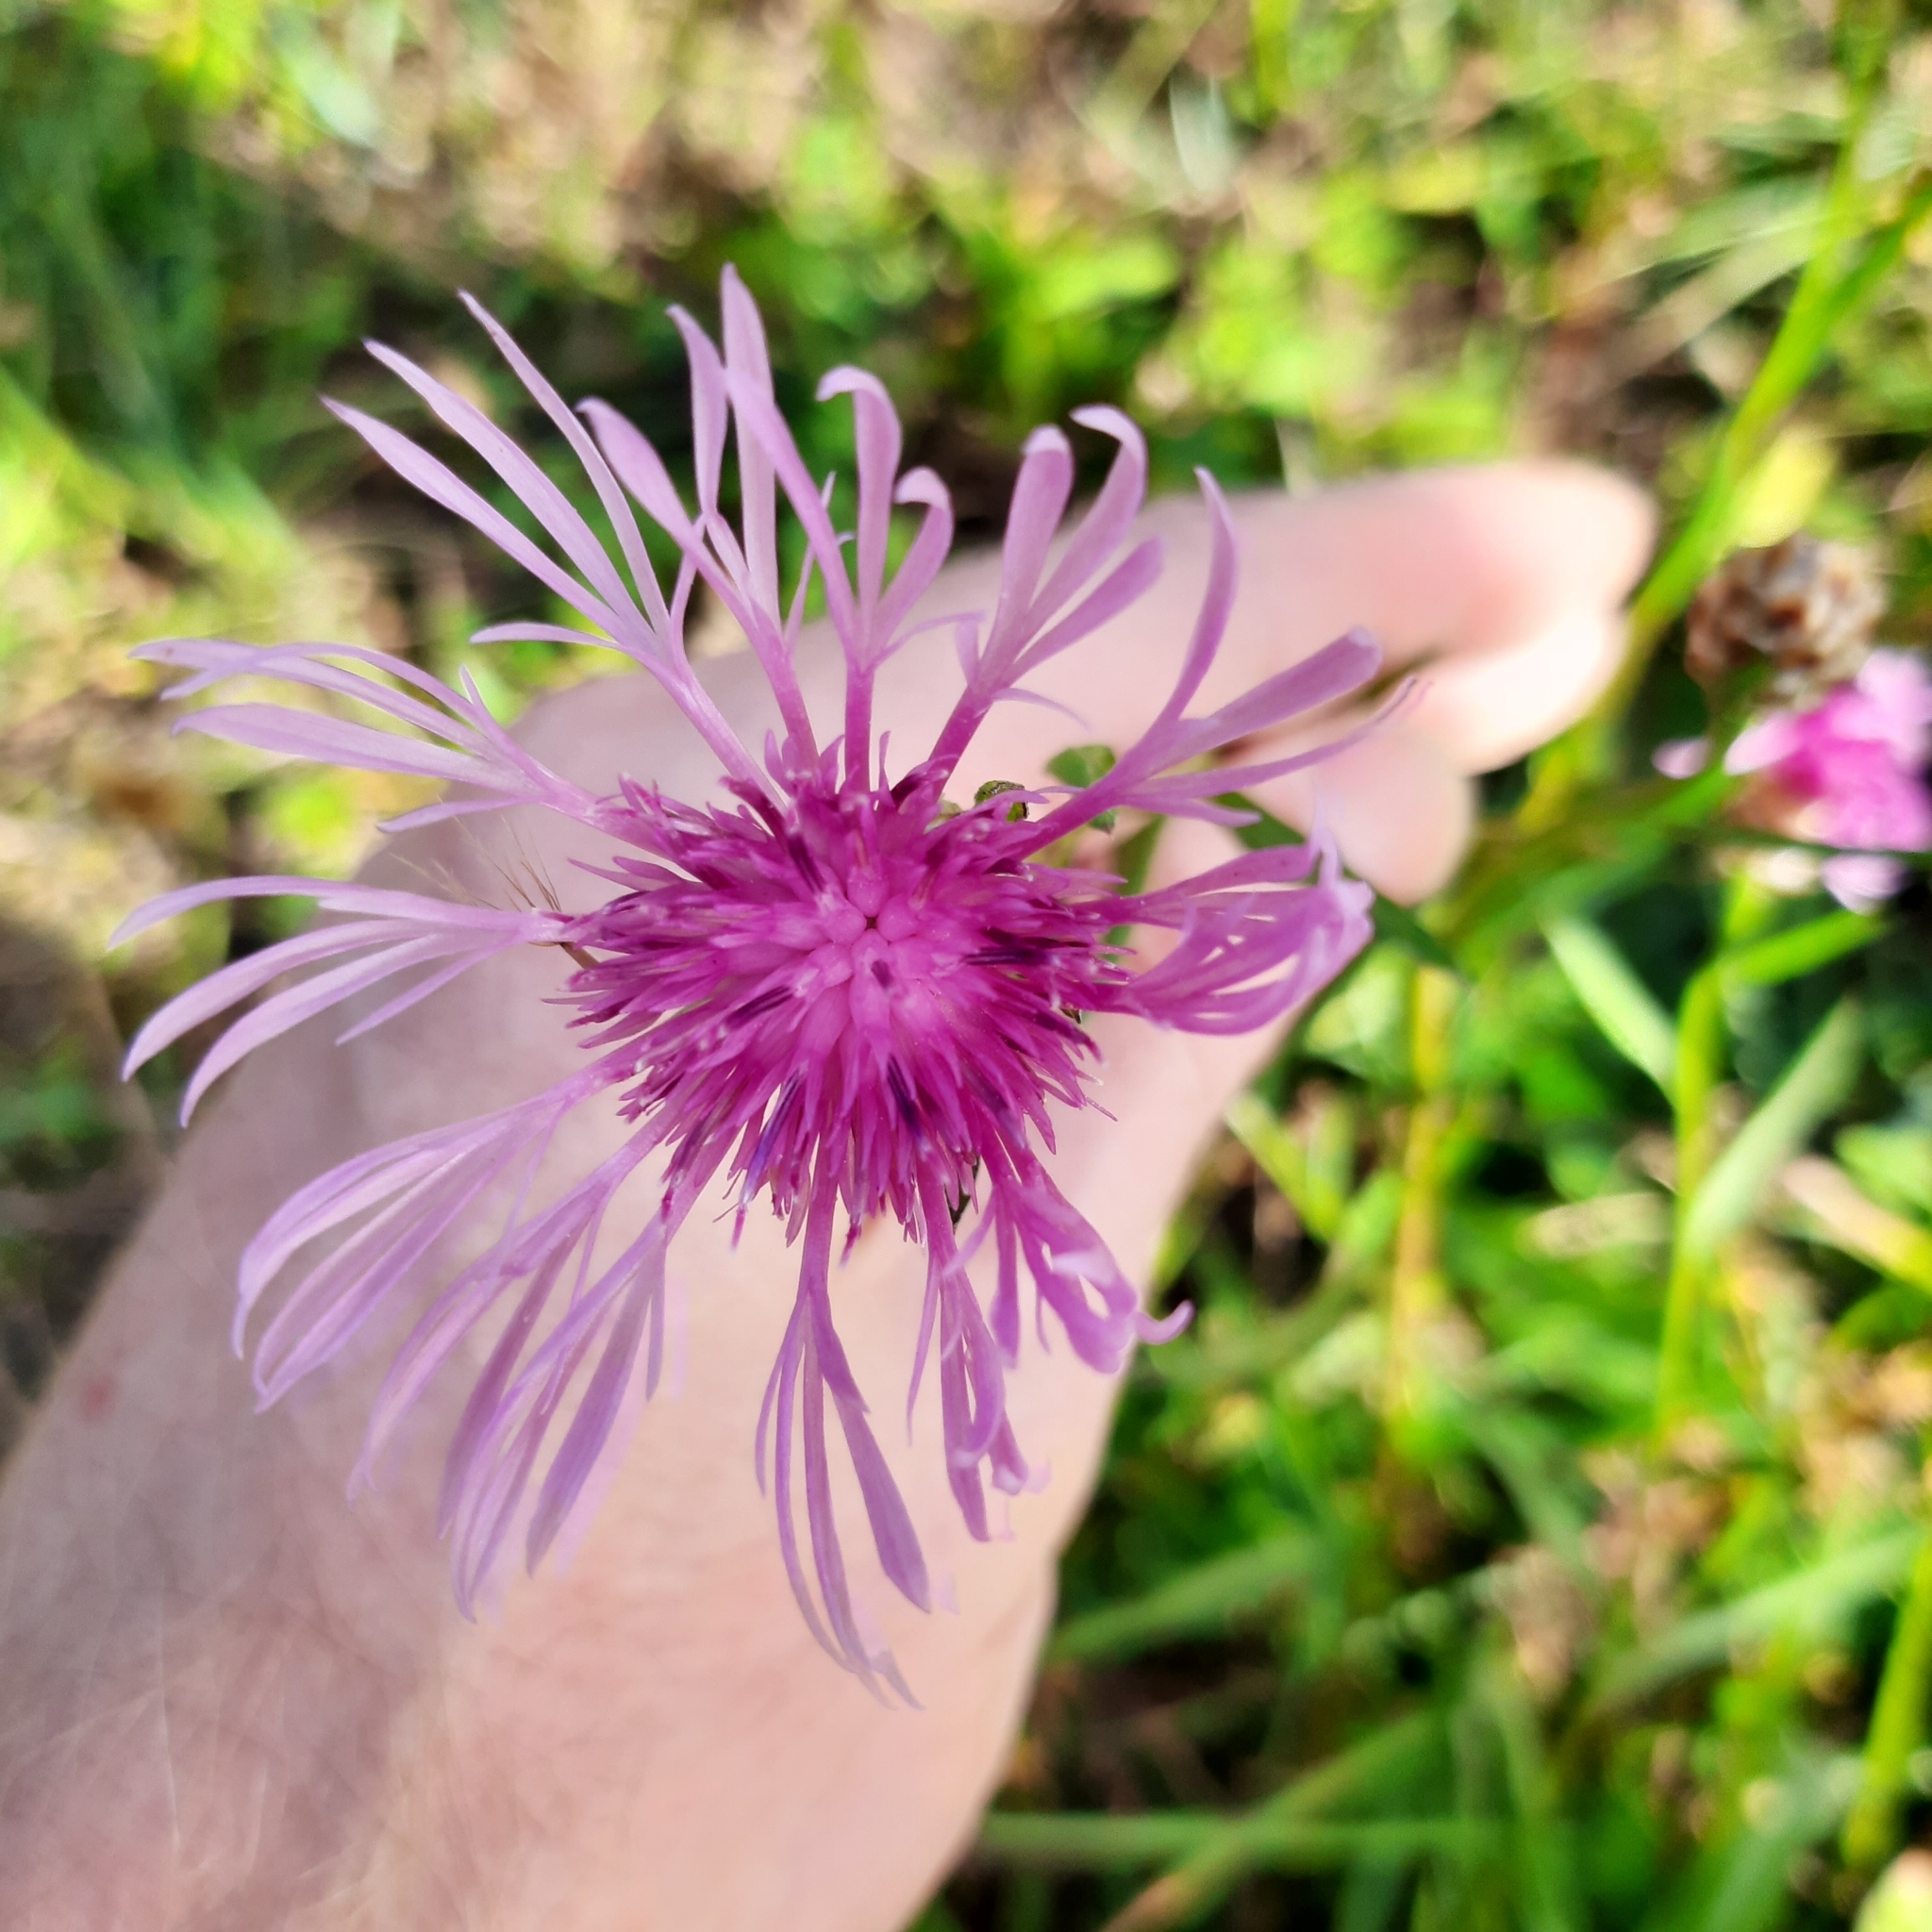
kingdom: Plantae
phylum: Tracheophyta
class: Magnoliopsida
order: Asterales
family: Asteraceae
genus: Centaurea
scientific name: Centaurea jacea
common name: Brown knapweed
